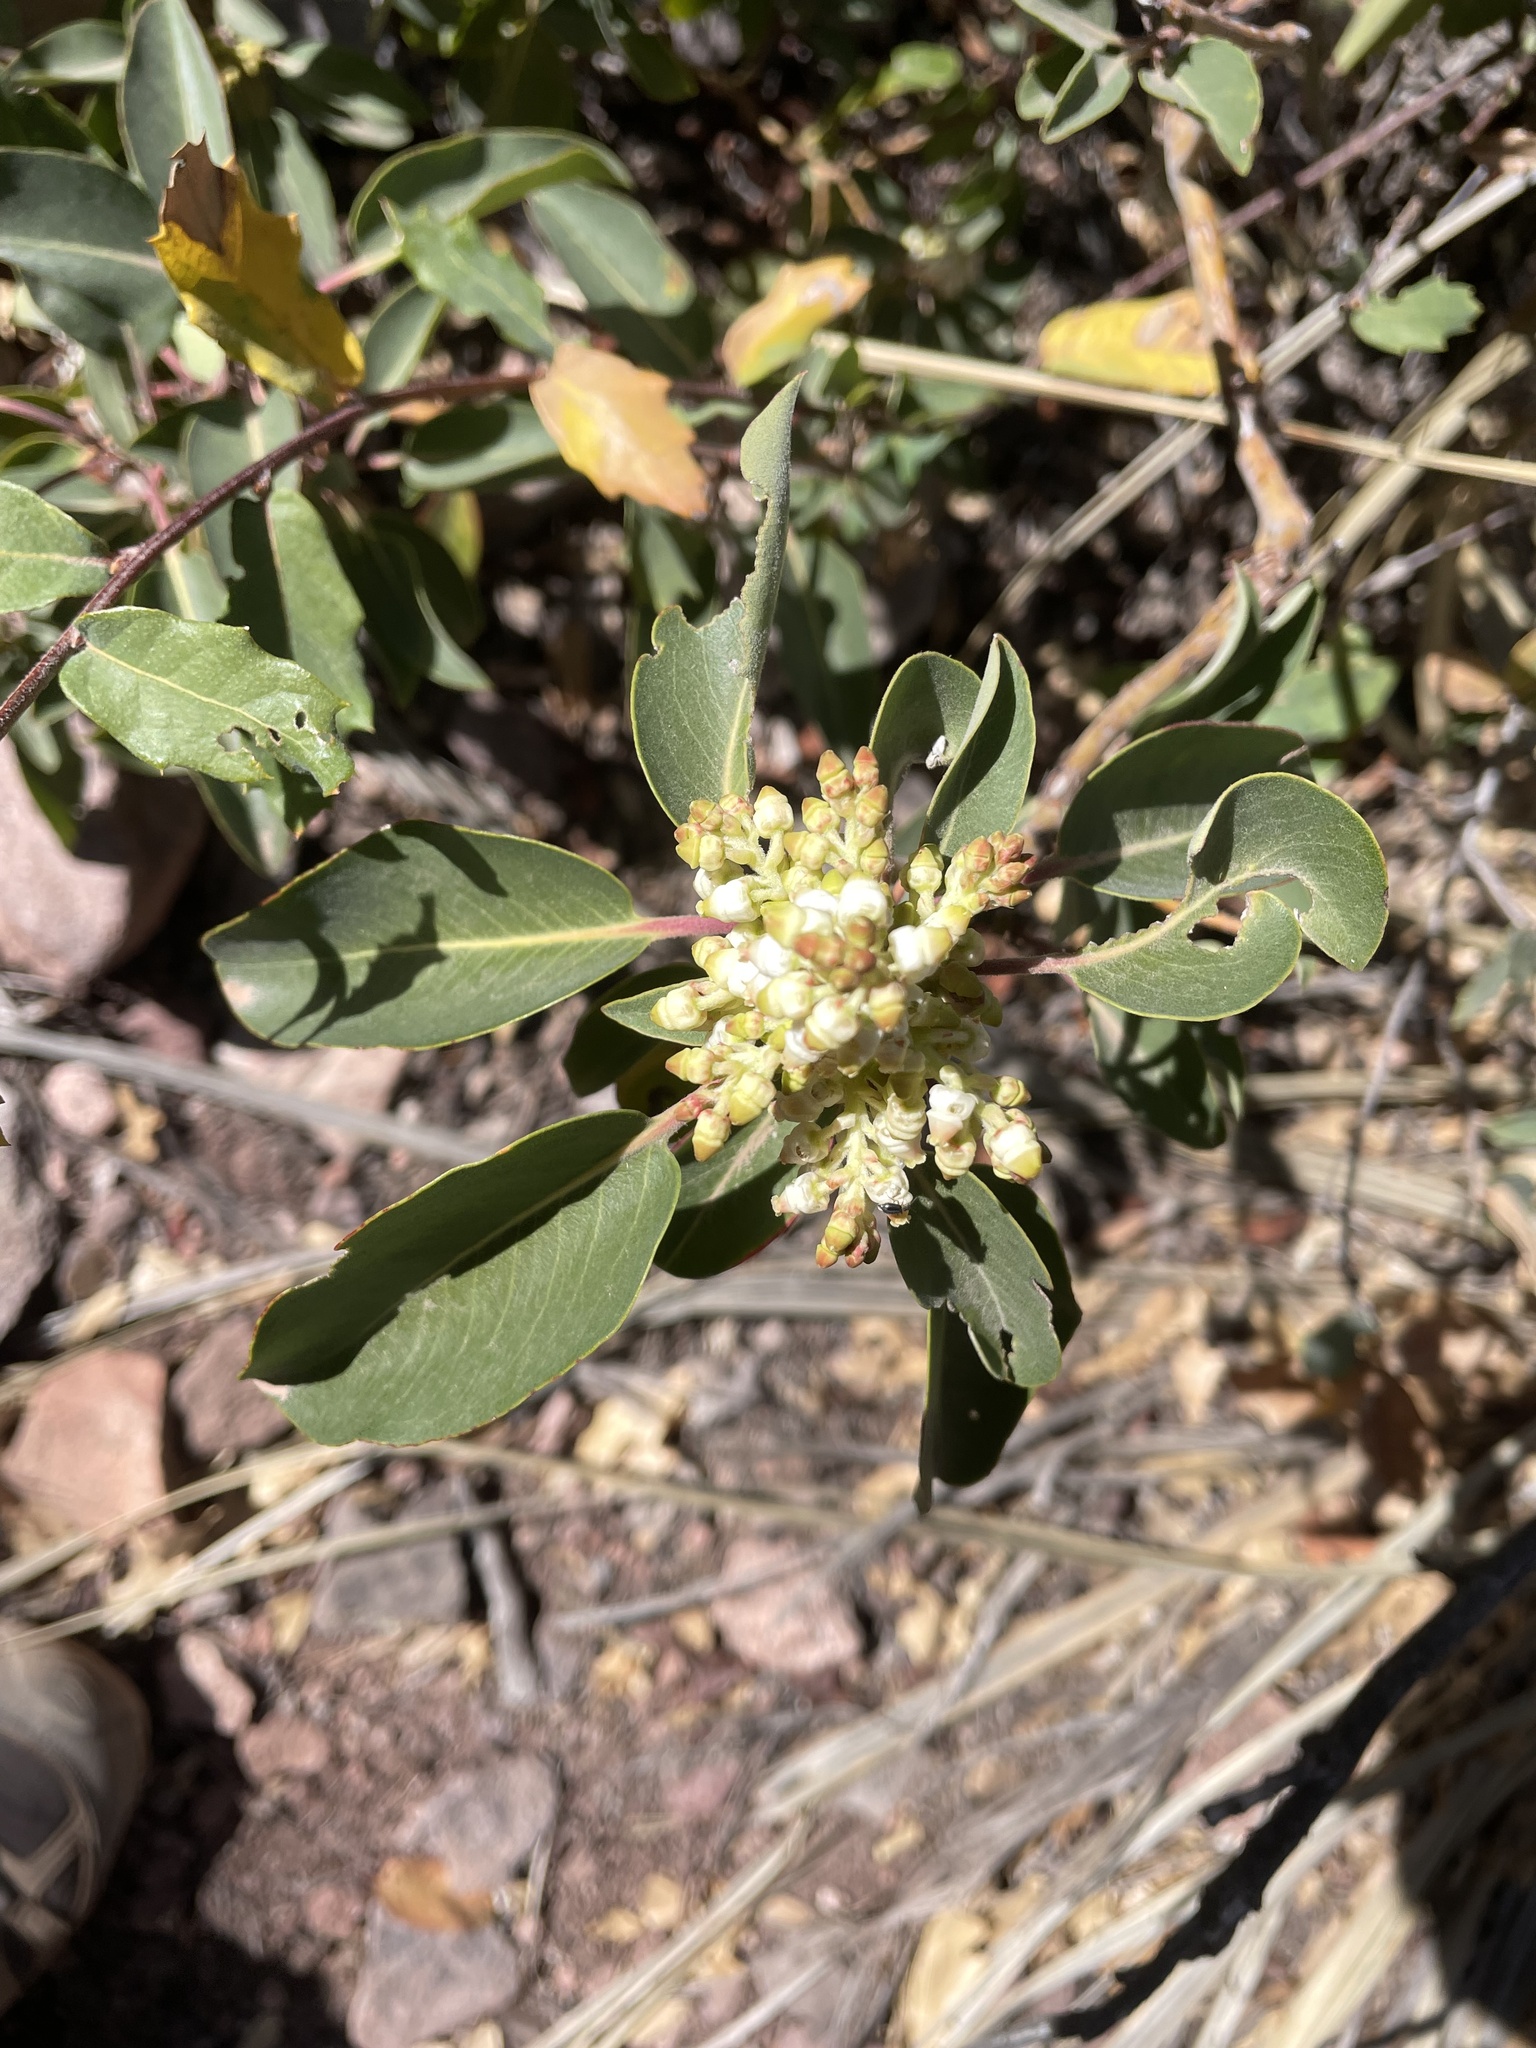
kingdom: Plantae
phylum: Tracheophyta
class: Magnoliopsida
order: Ericales
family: Ericaceae
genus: Arbutus
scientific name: Arbutus xalapensis
